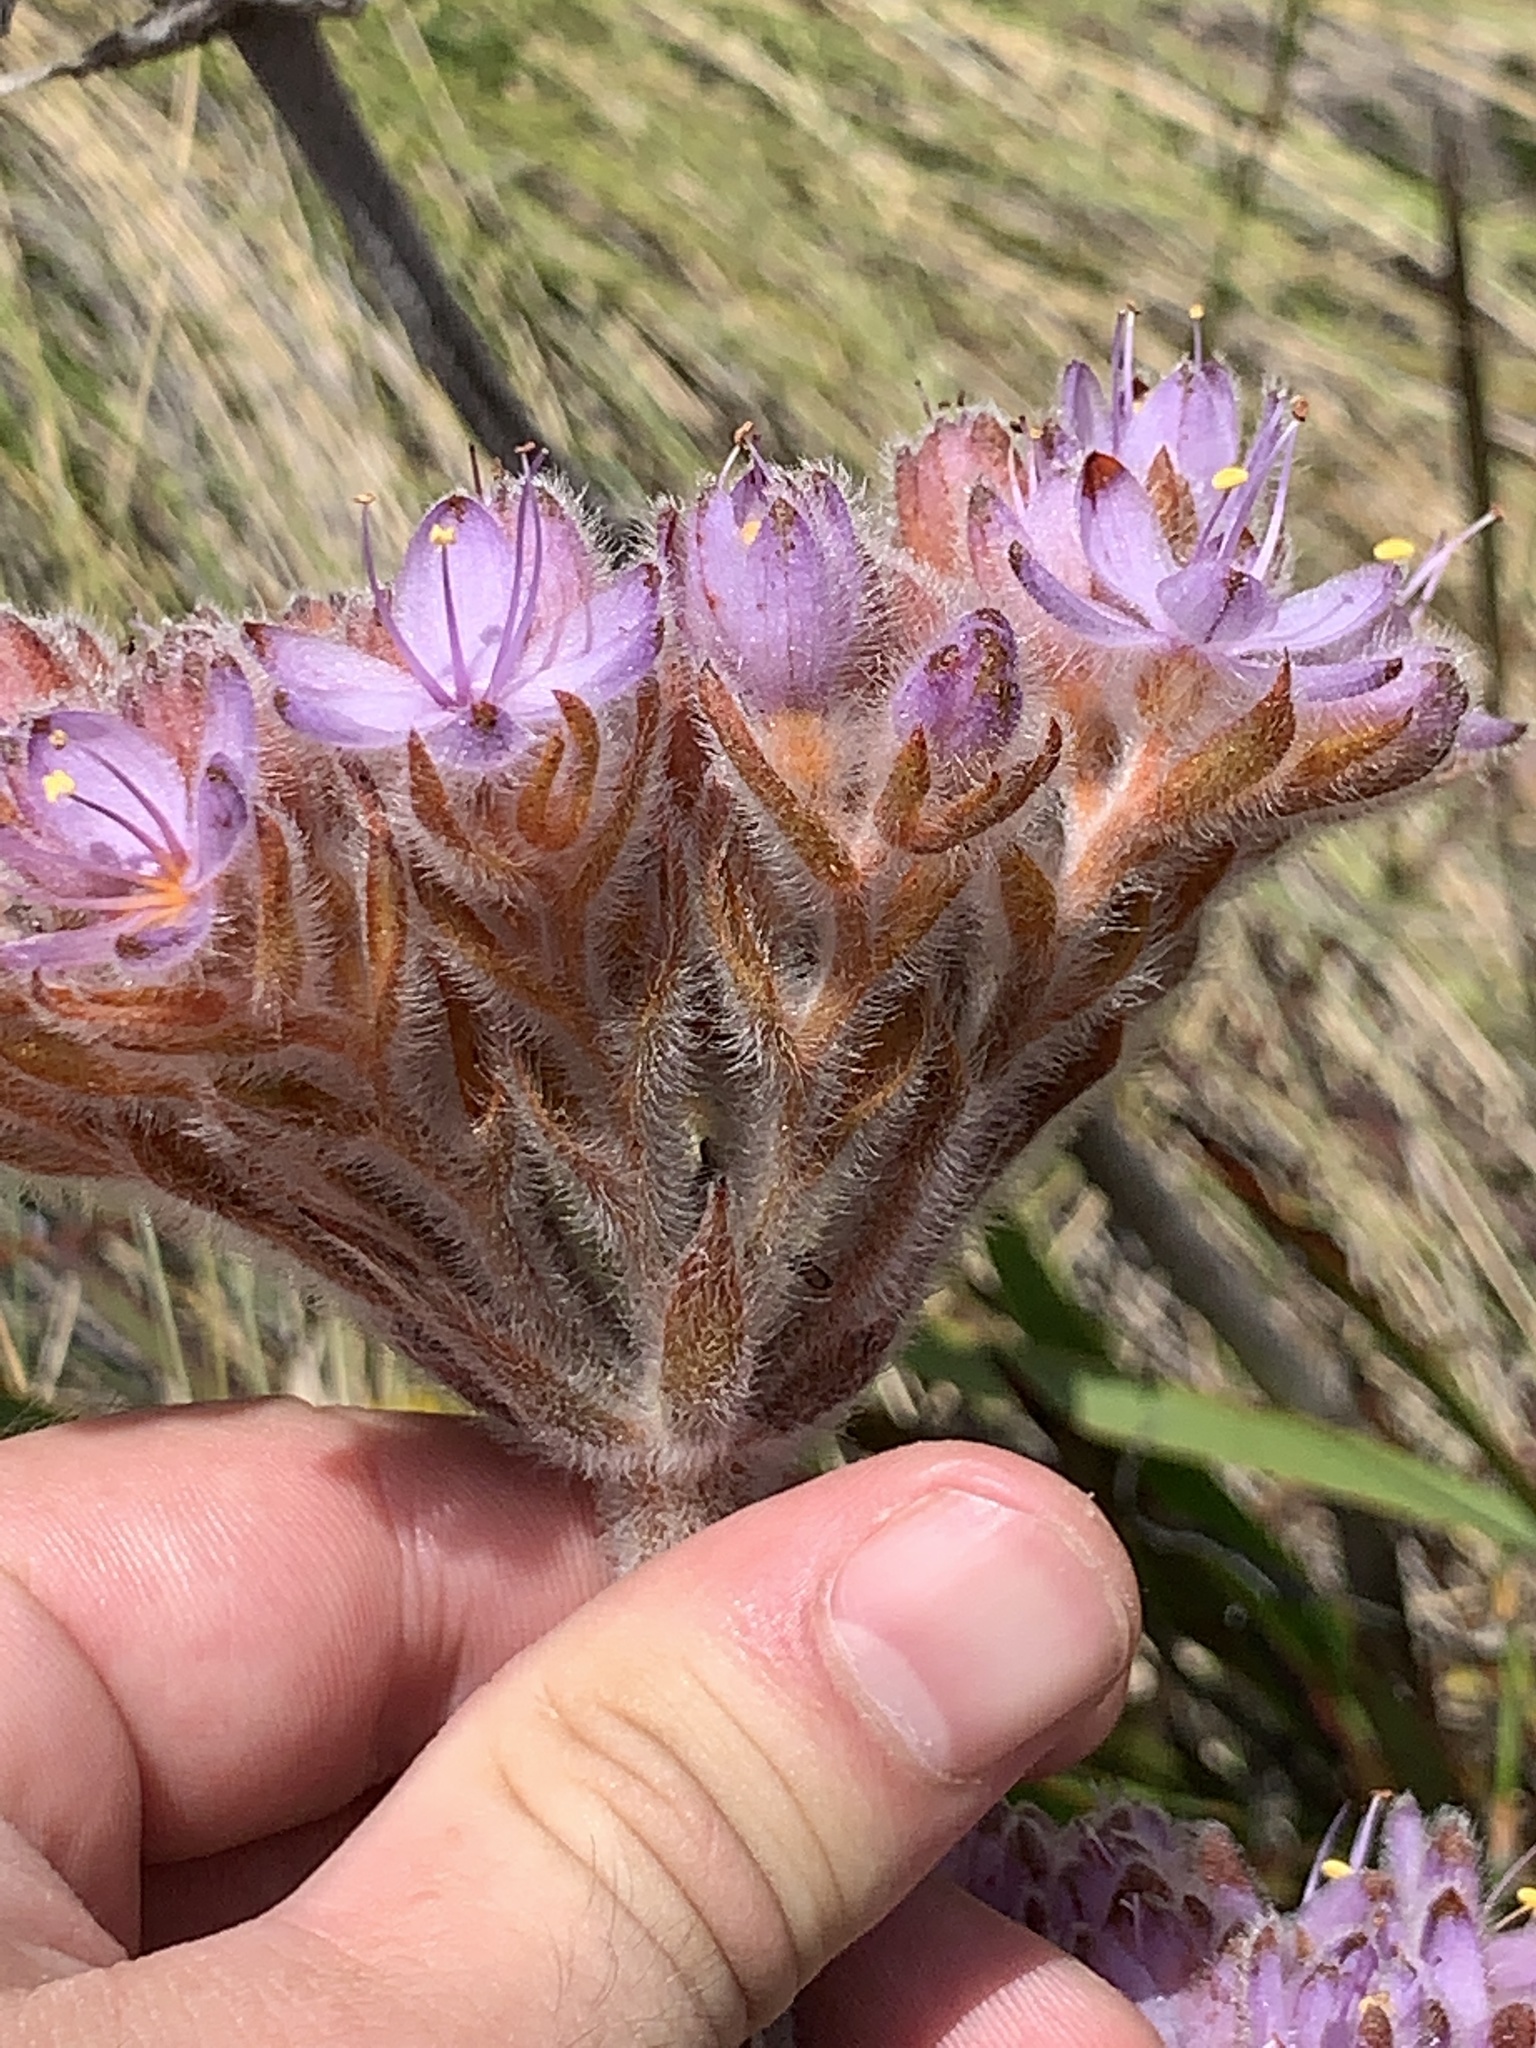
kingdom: Plantae
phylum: Tracheophyta
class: Liliopsida
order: Commelinales
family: Haemodoraceae
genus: Dilatris
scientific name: Dilatris corymbosa
